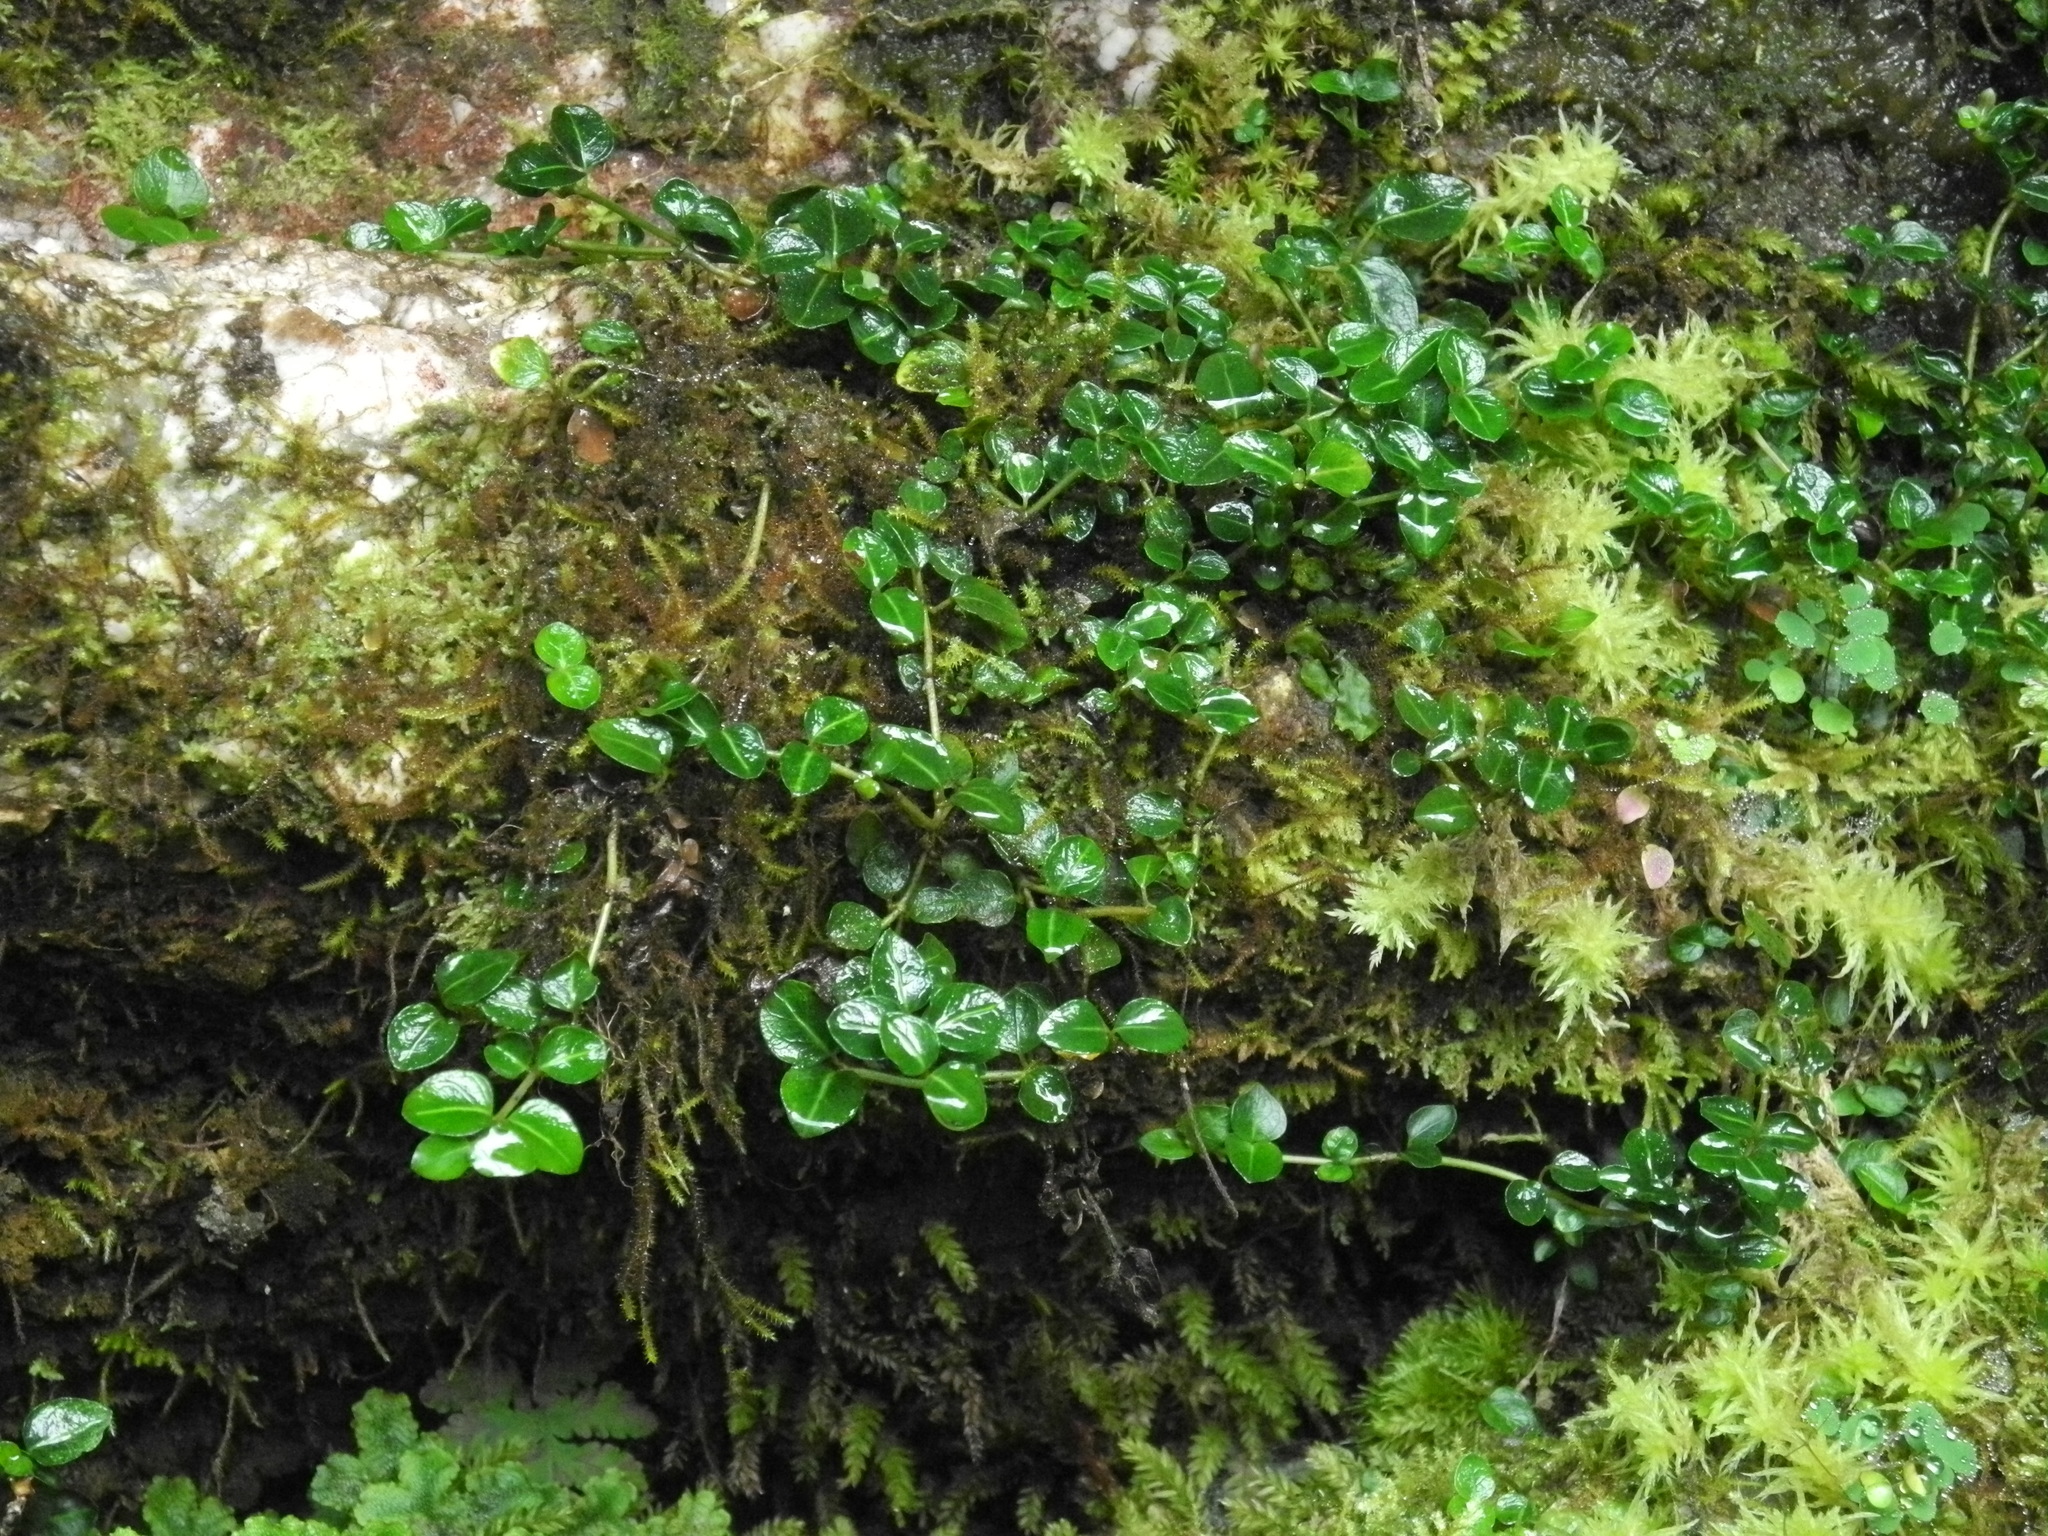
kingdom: Plantae
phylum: Tracheophyta
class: Magnoliopsida
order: Gentianales
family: Rubiaceae
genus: Mitchella
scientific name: Mitchella repens
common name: Partridge-berry
